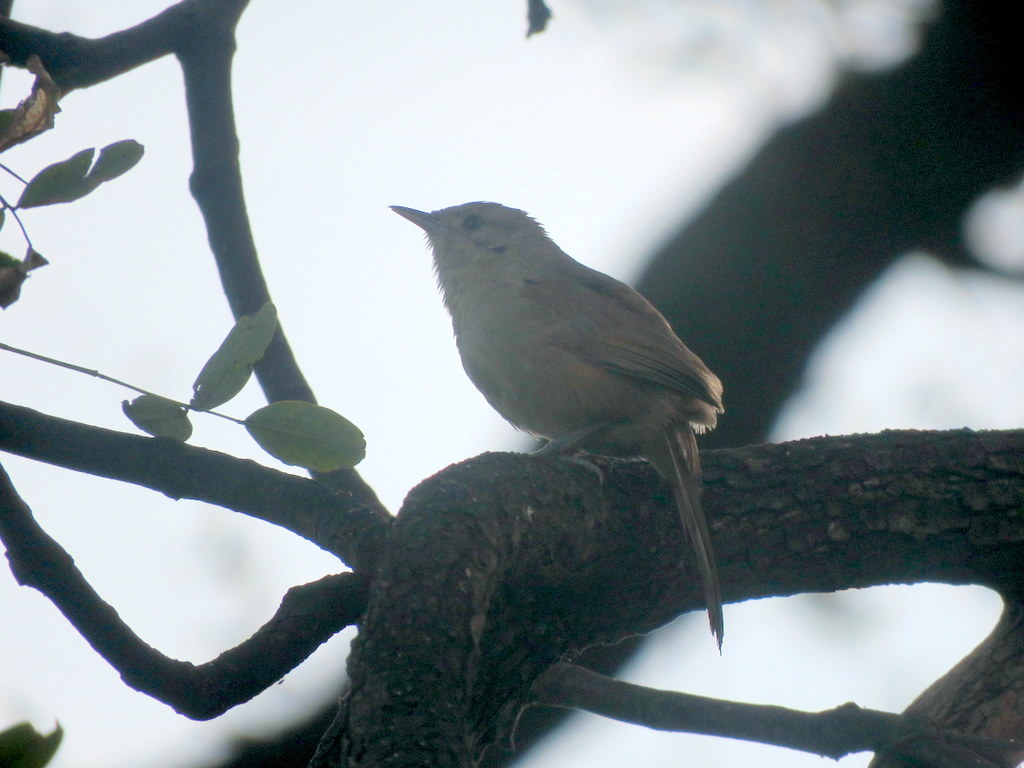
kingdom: Animalia
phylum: Chordata
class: Aves
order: Passeriformes
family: Furnariidae
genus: Phacellodomus
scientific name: Phacellodomus sibilatrix
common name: Little thornbird
